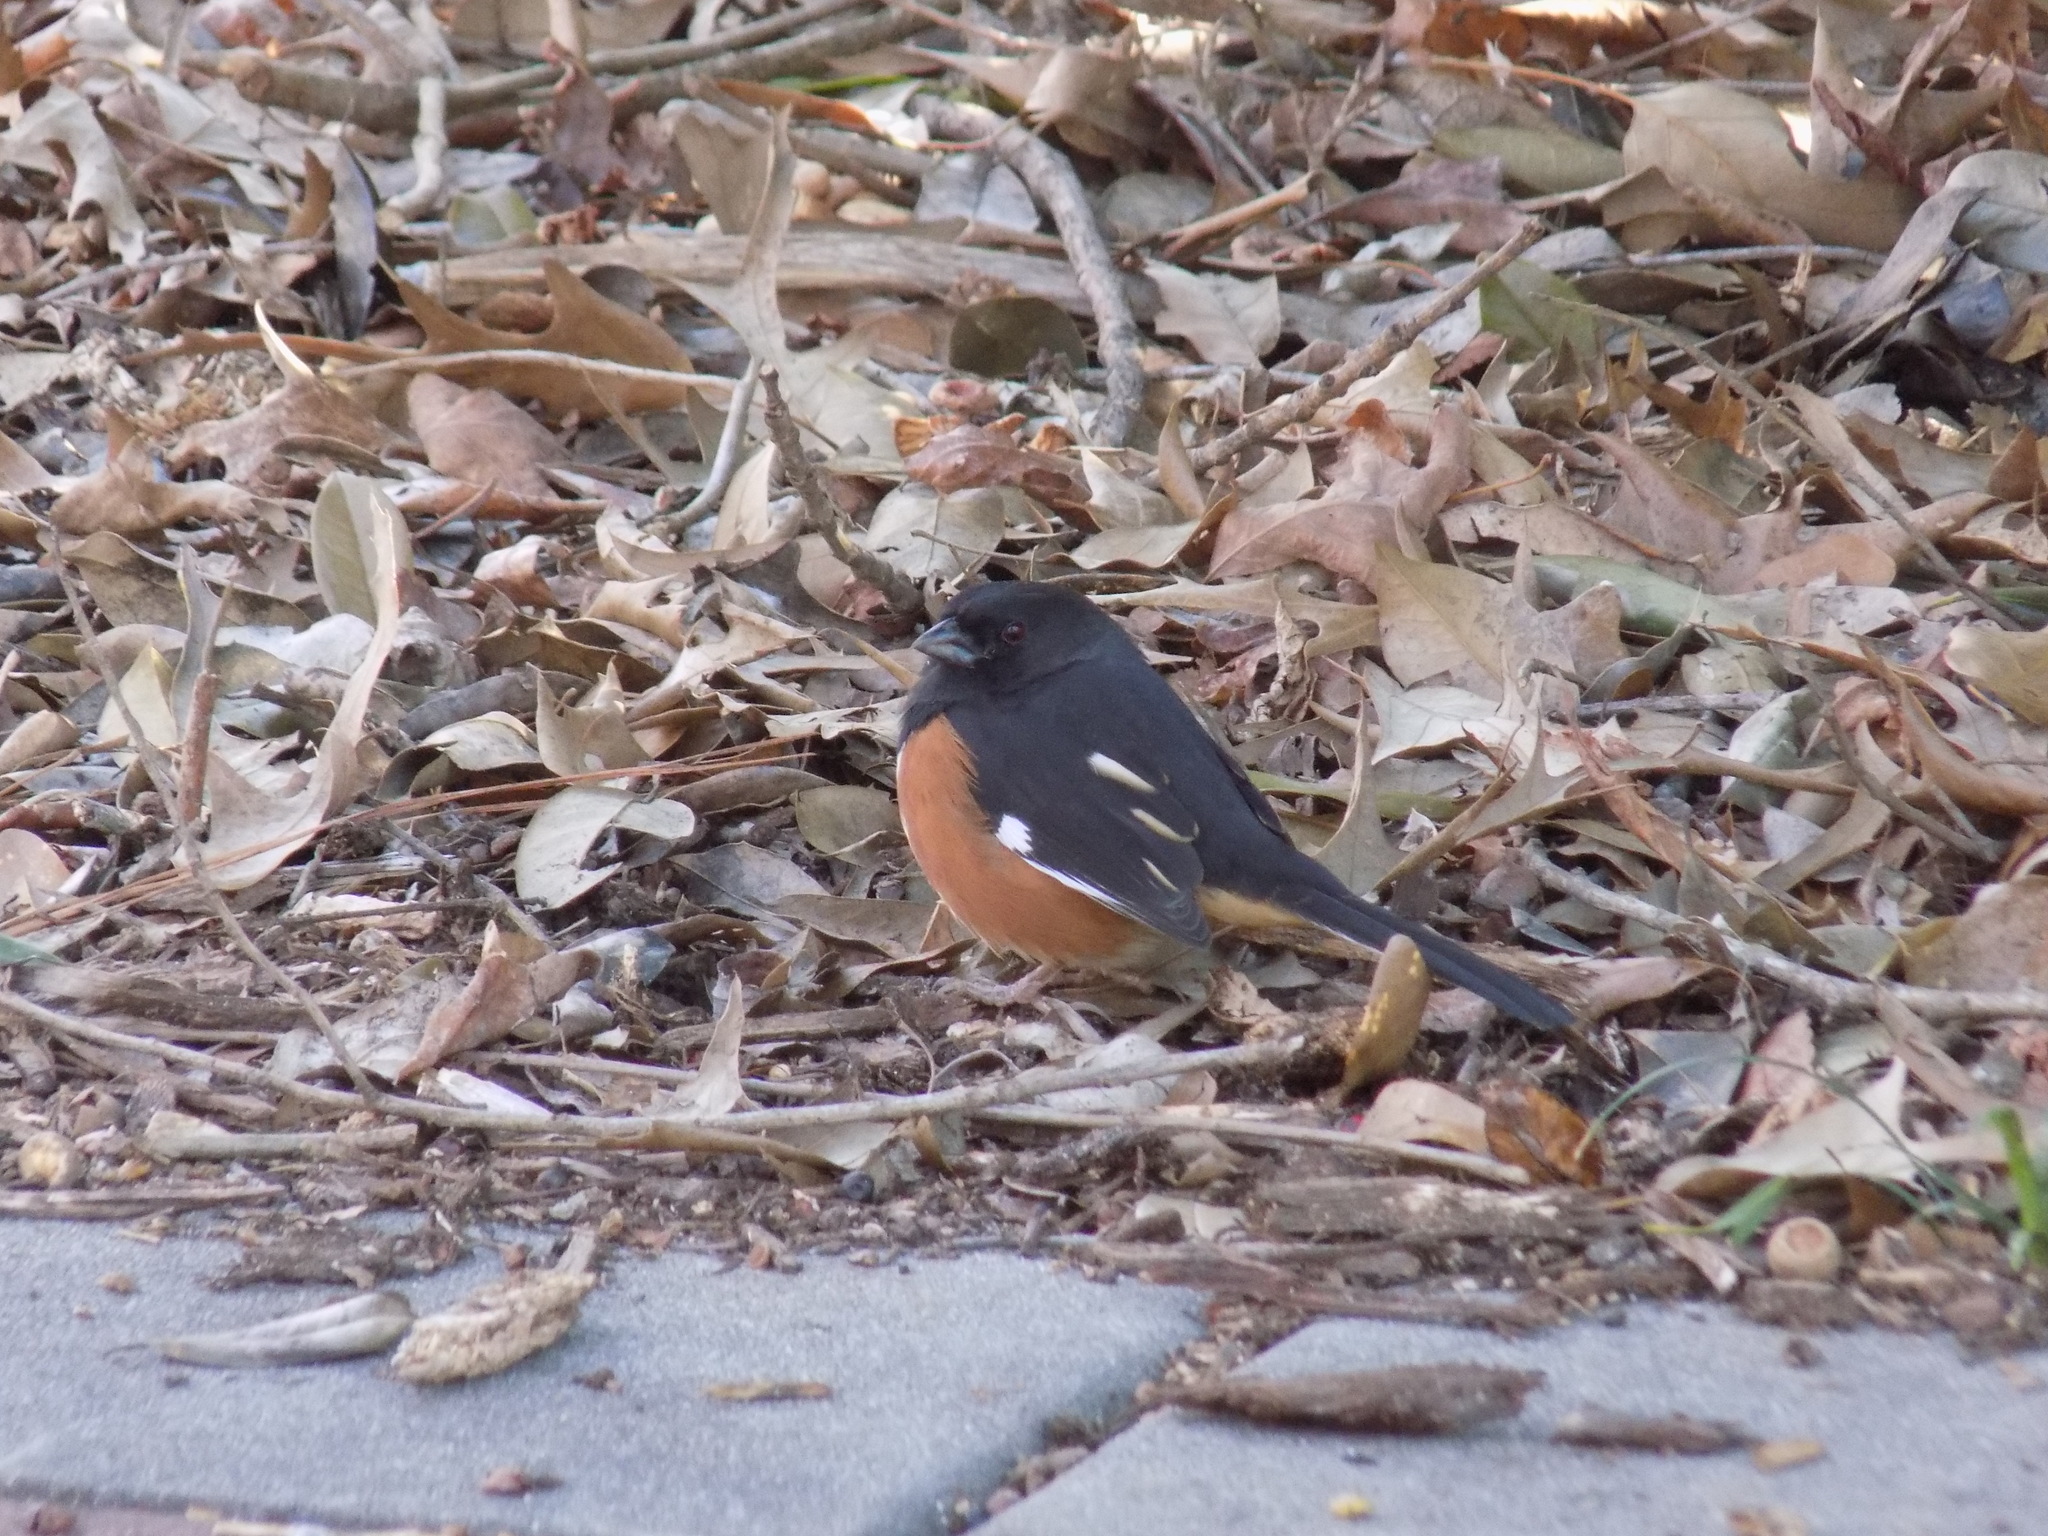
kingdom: Animalia
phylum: Chordata
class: Aves
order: Passeriformes
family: Passerellidae
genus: Pipilo
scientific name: Pipilo erythrophthalmus
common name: Eastern towhee
